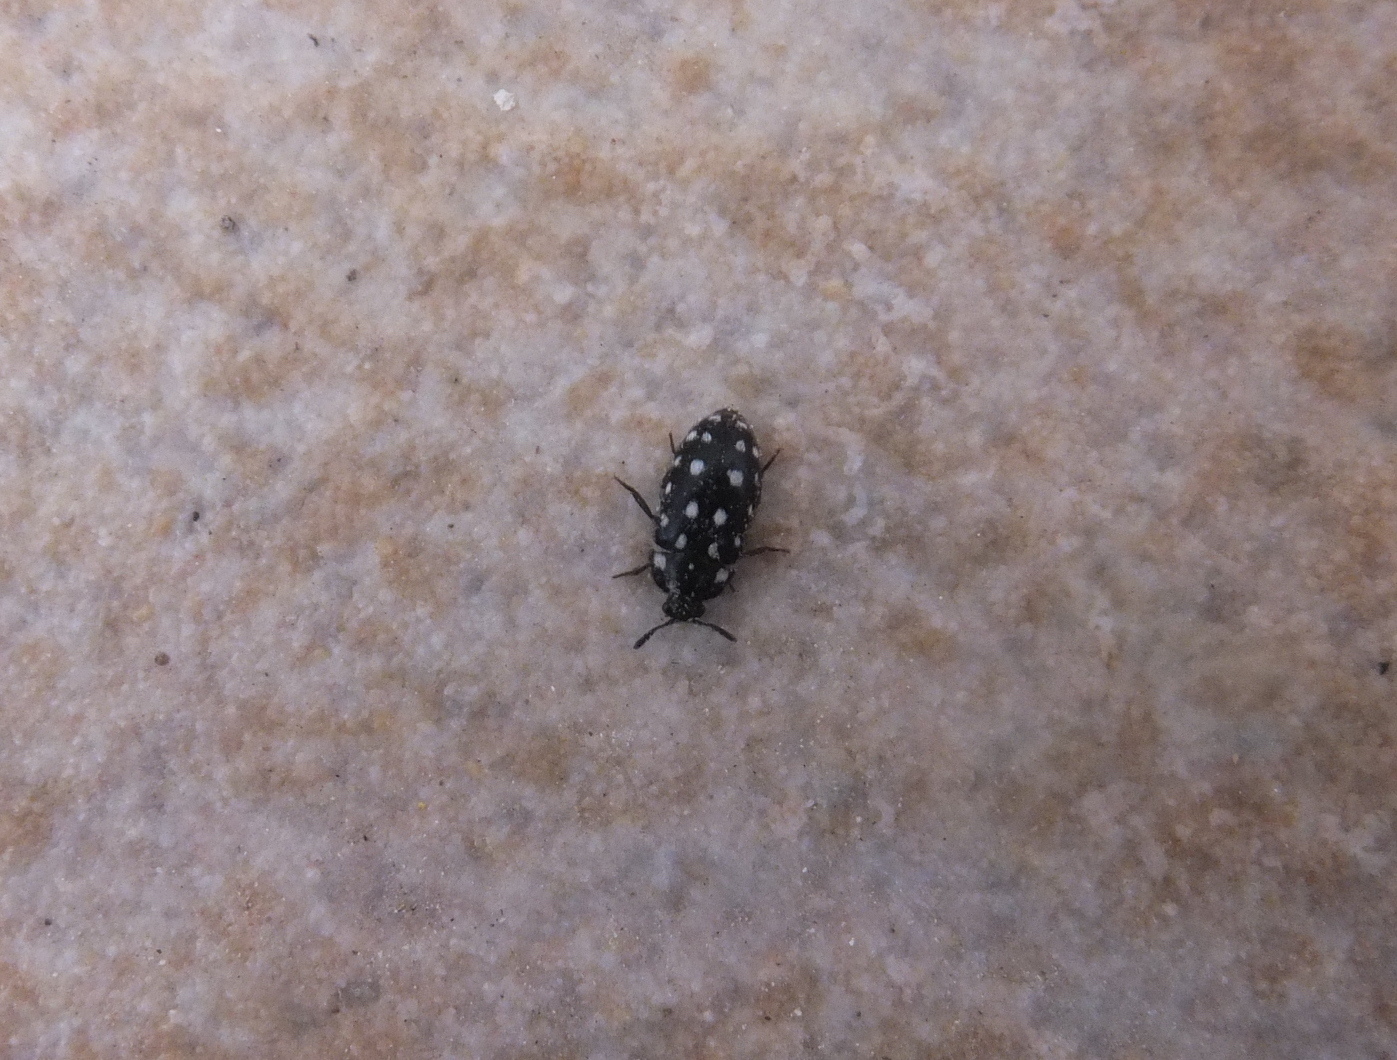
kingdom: Animalia
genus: Paranovelsis
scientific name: Paranovelsis
